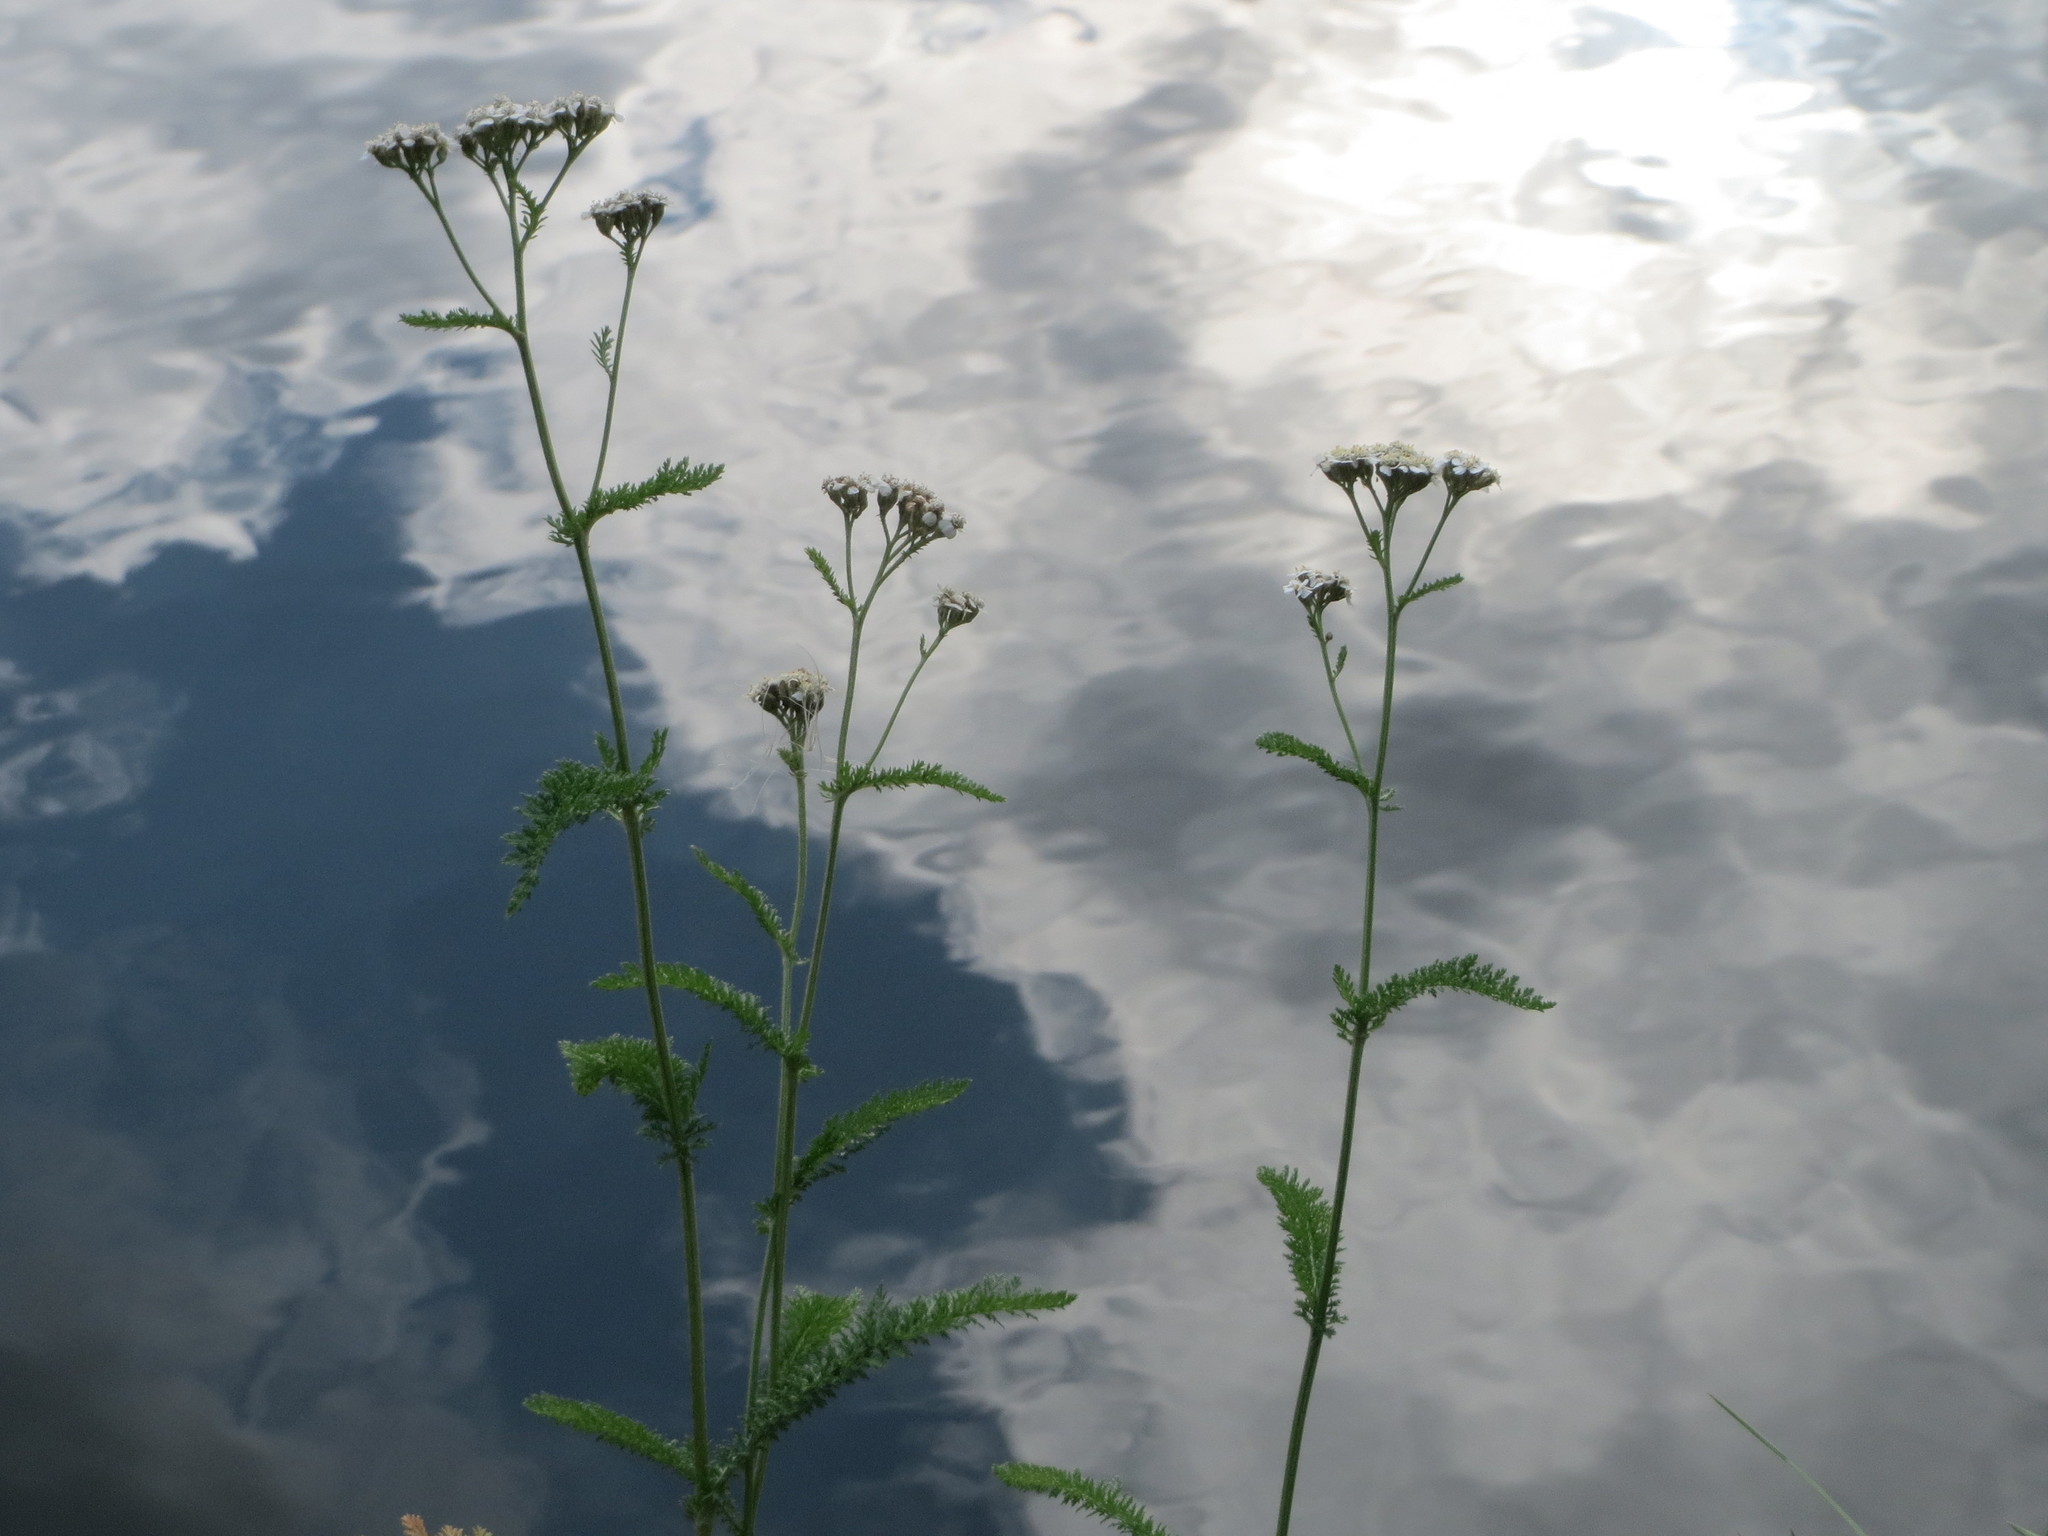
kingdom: Plantae
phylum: Tracheophyta
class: Magnoliopsida
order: Asterales
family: Asteraceae
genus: Achillea
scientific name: Achillea millefolium
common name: Yarrow
